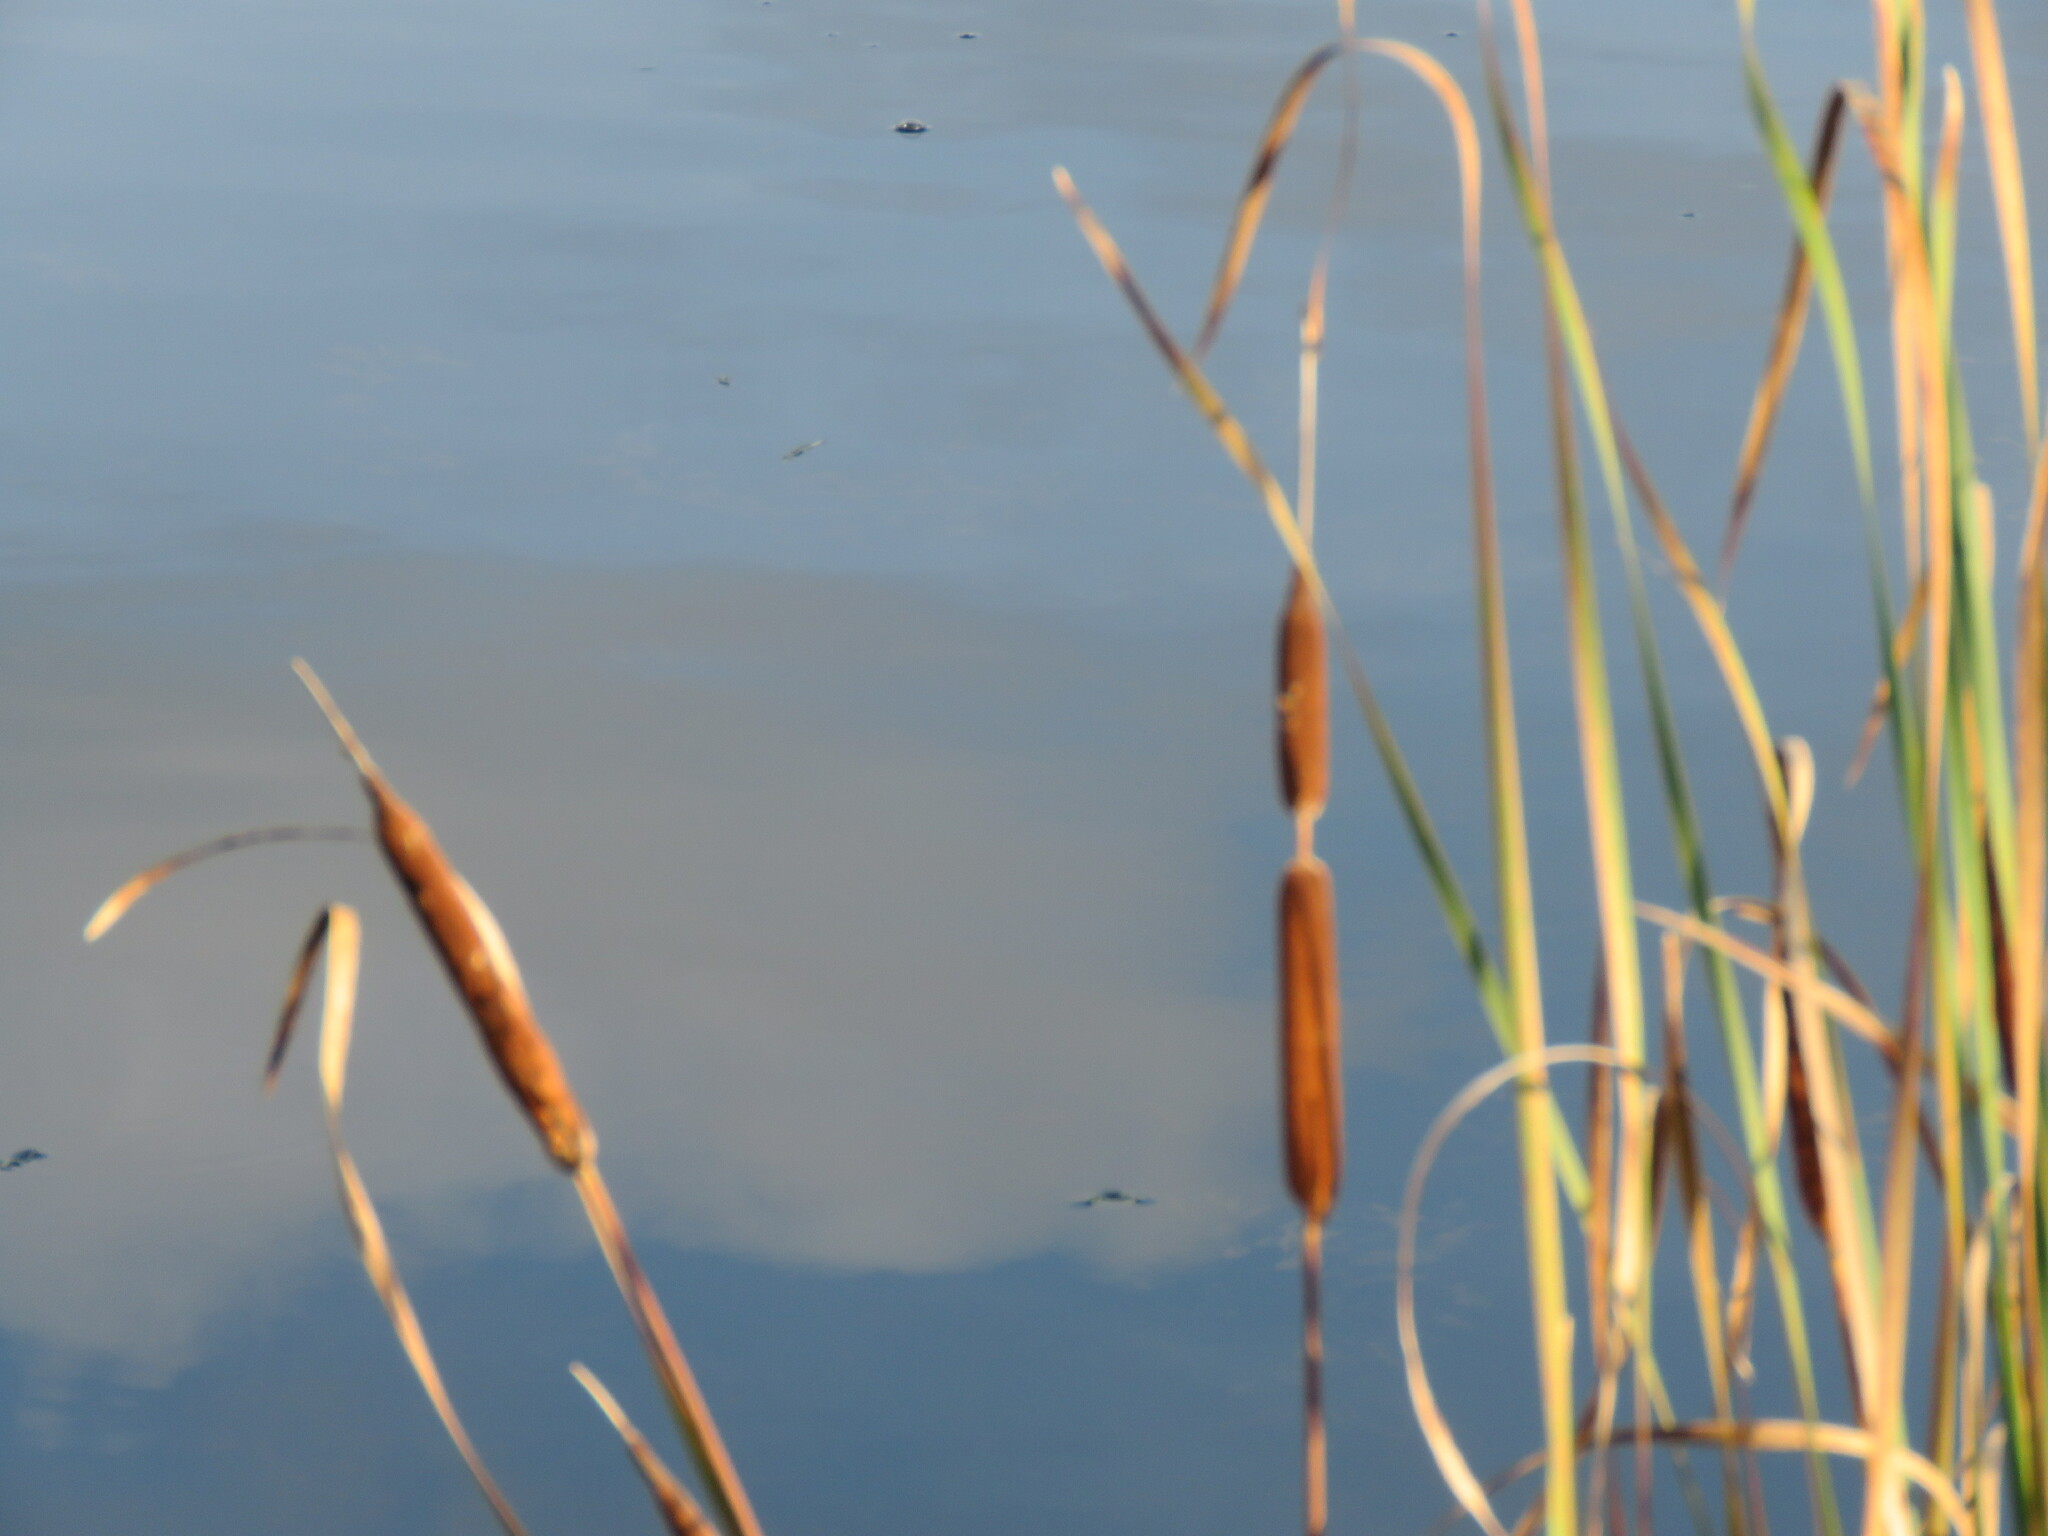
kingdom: Plantae
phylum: Tracheophyta
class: Liliopsida
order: Poales
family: Typhaceae
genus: Typha
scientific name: Typha angustifolia
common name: Lesser bulrush
